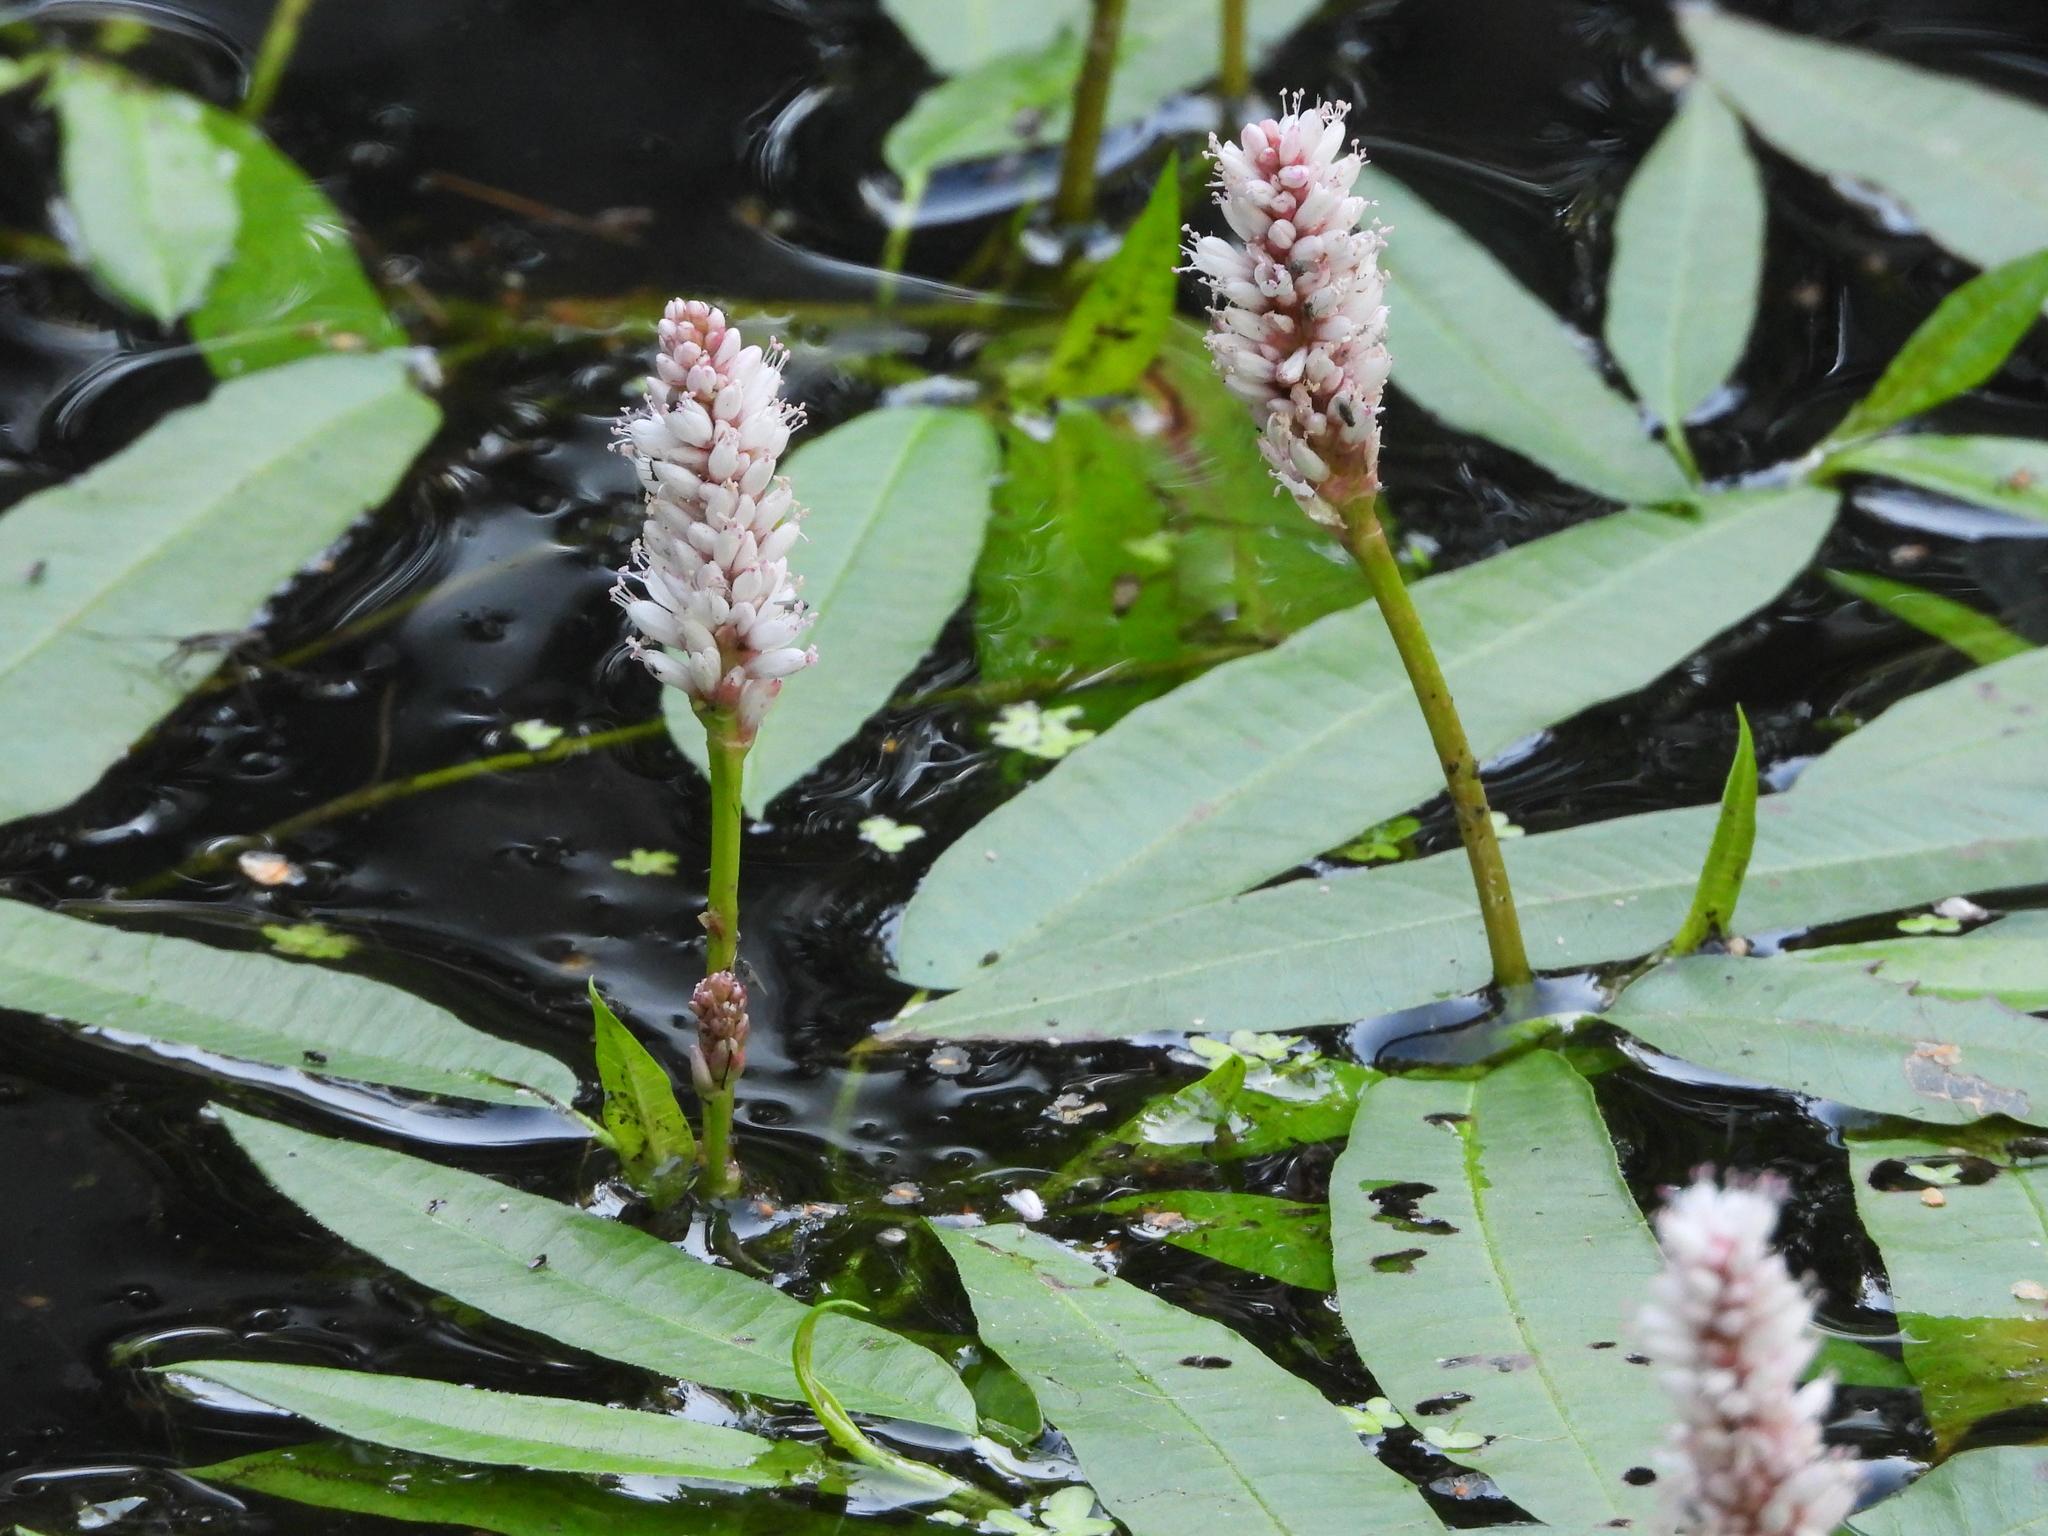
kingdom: Plantae
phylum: Tracheophyta
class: Magnoliopsida
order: Caryophyllales
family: Polygonaceae
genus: Persicaria
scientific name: Persicaria amphibia
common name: Amphibious bistort
